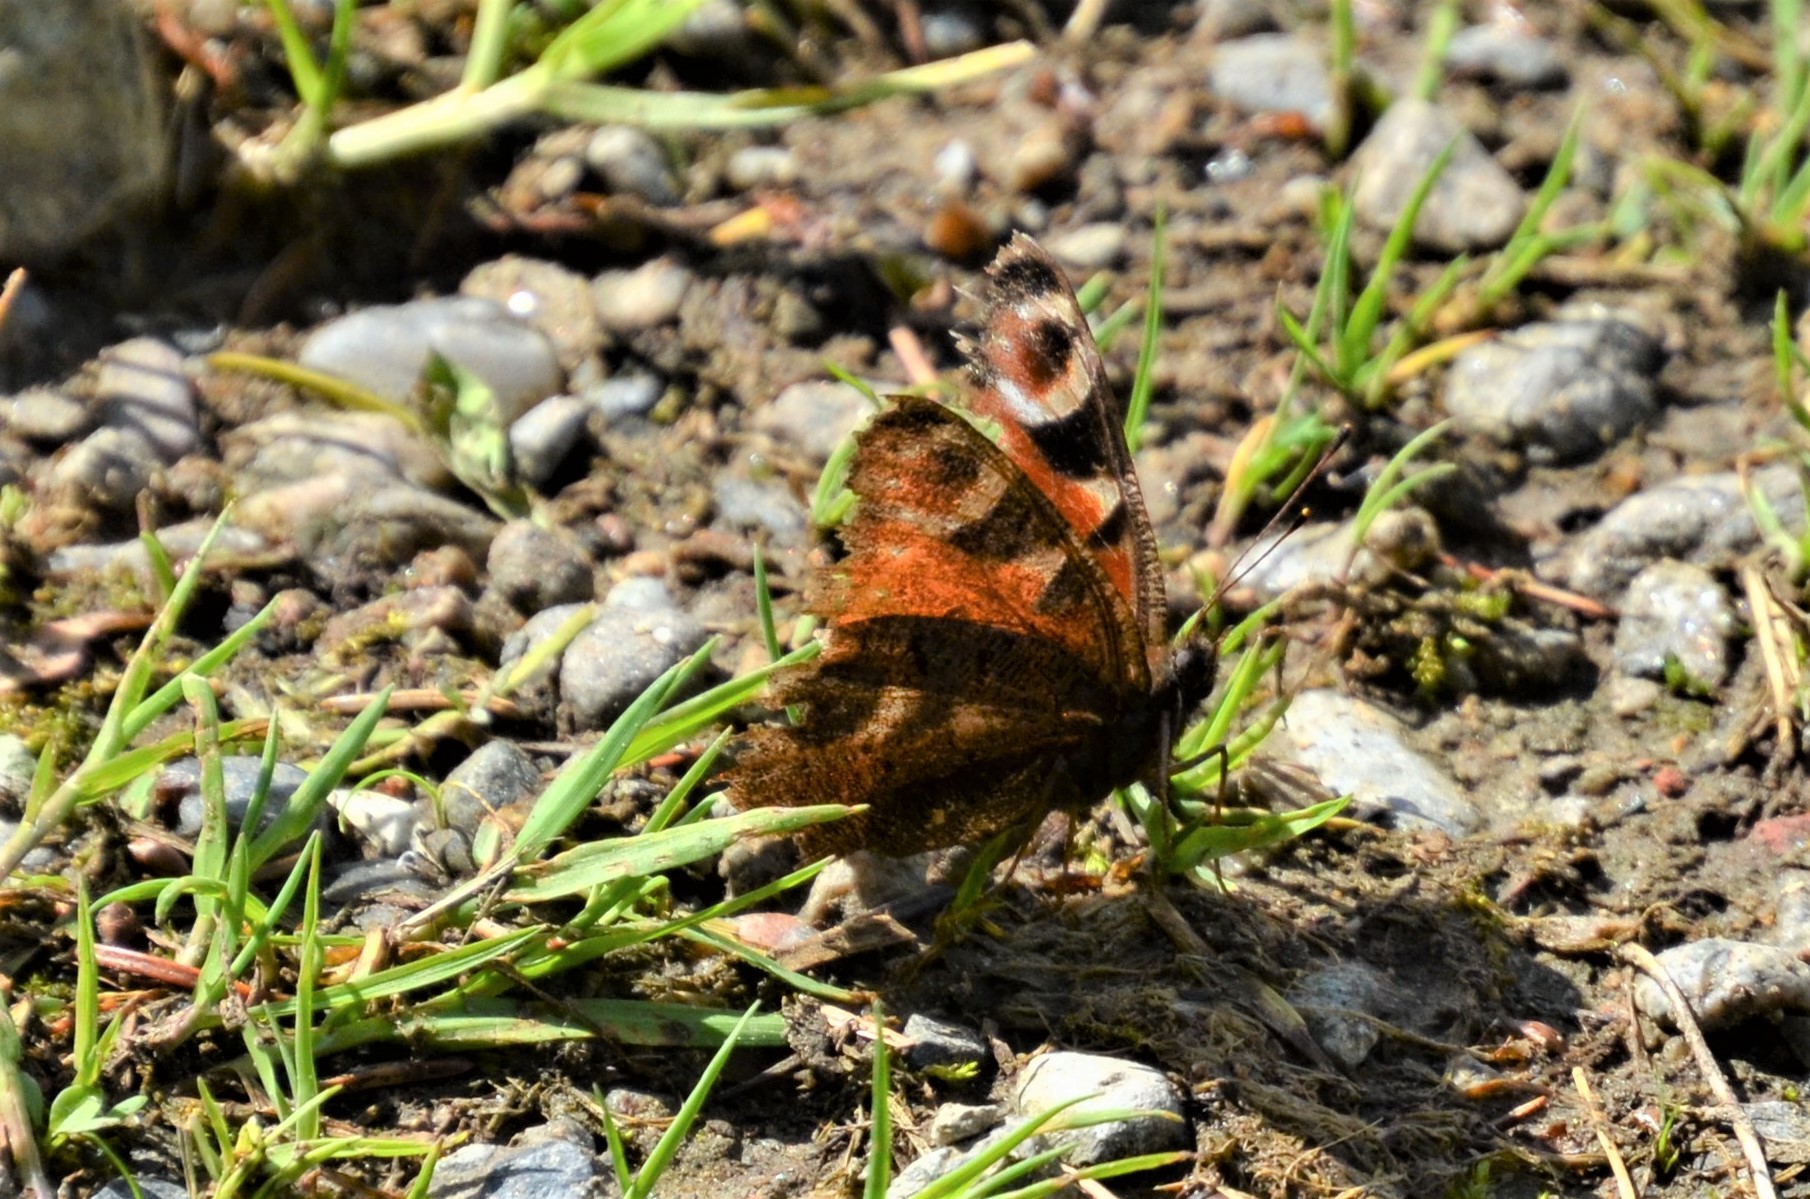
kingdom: Animalia
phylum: Arthropoda
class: Insecta
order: Lepidoptera
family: Nymphalidae
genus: Aglais
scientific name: Aglais io
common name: Peacock
